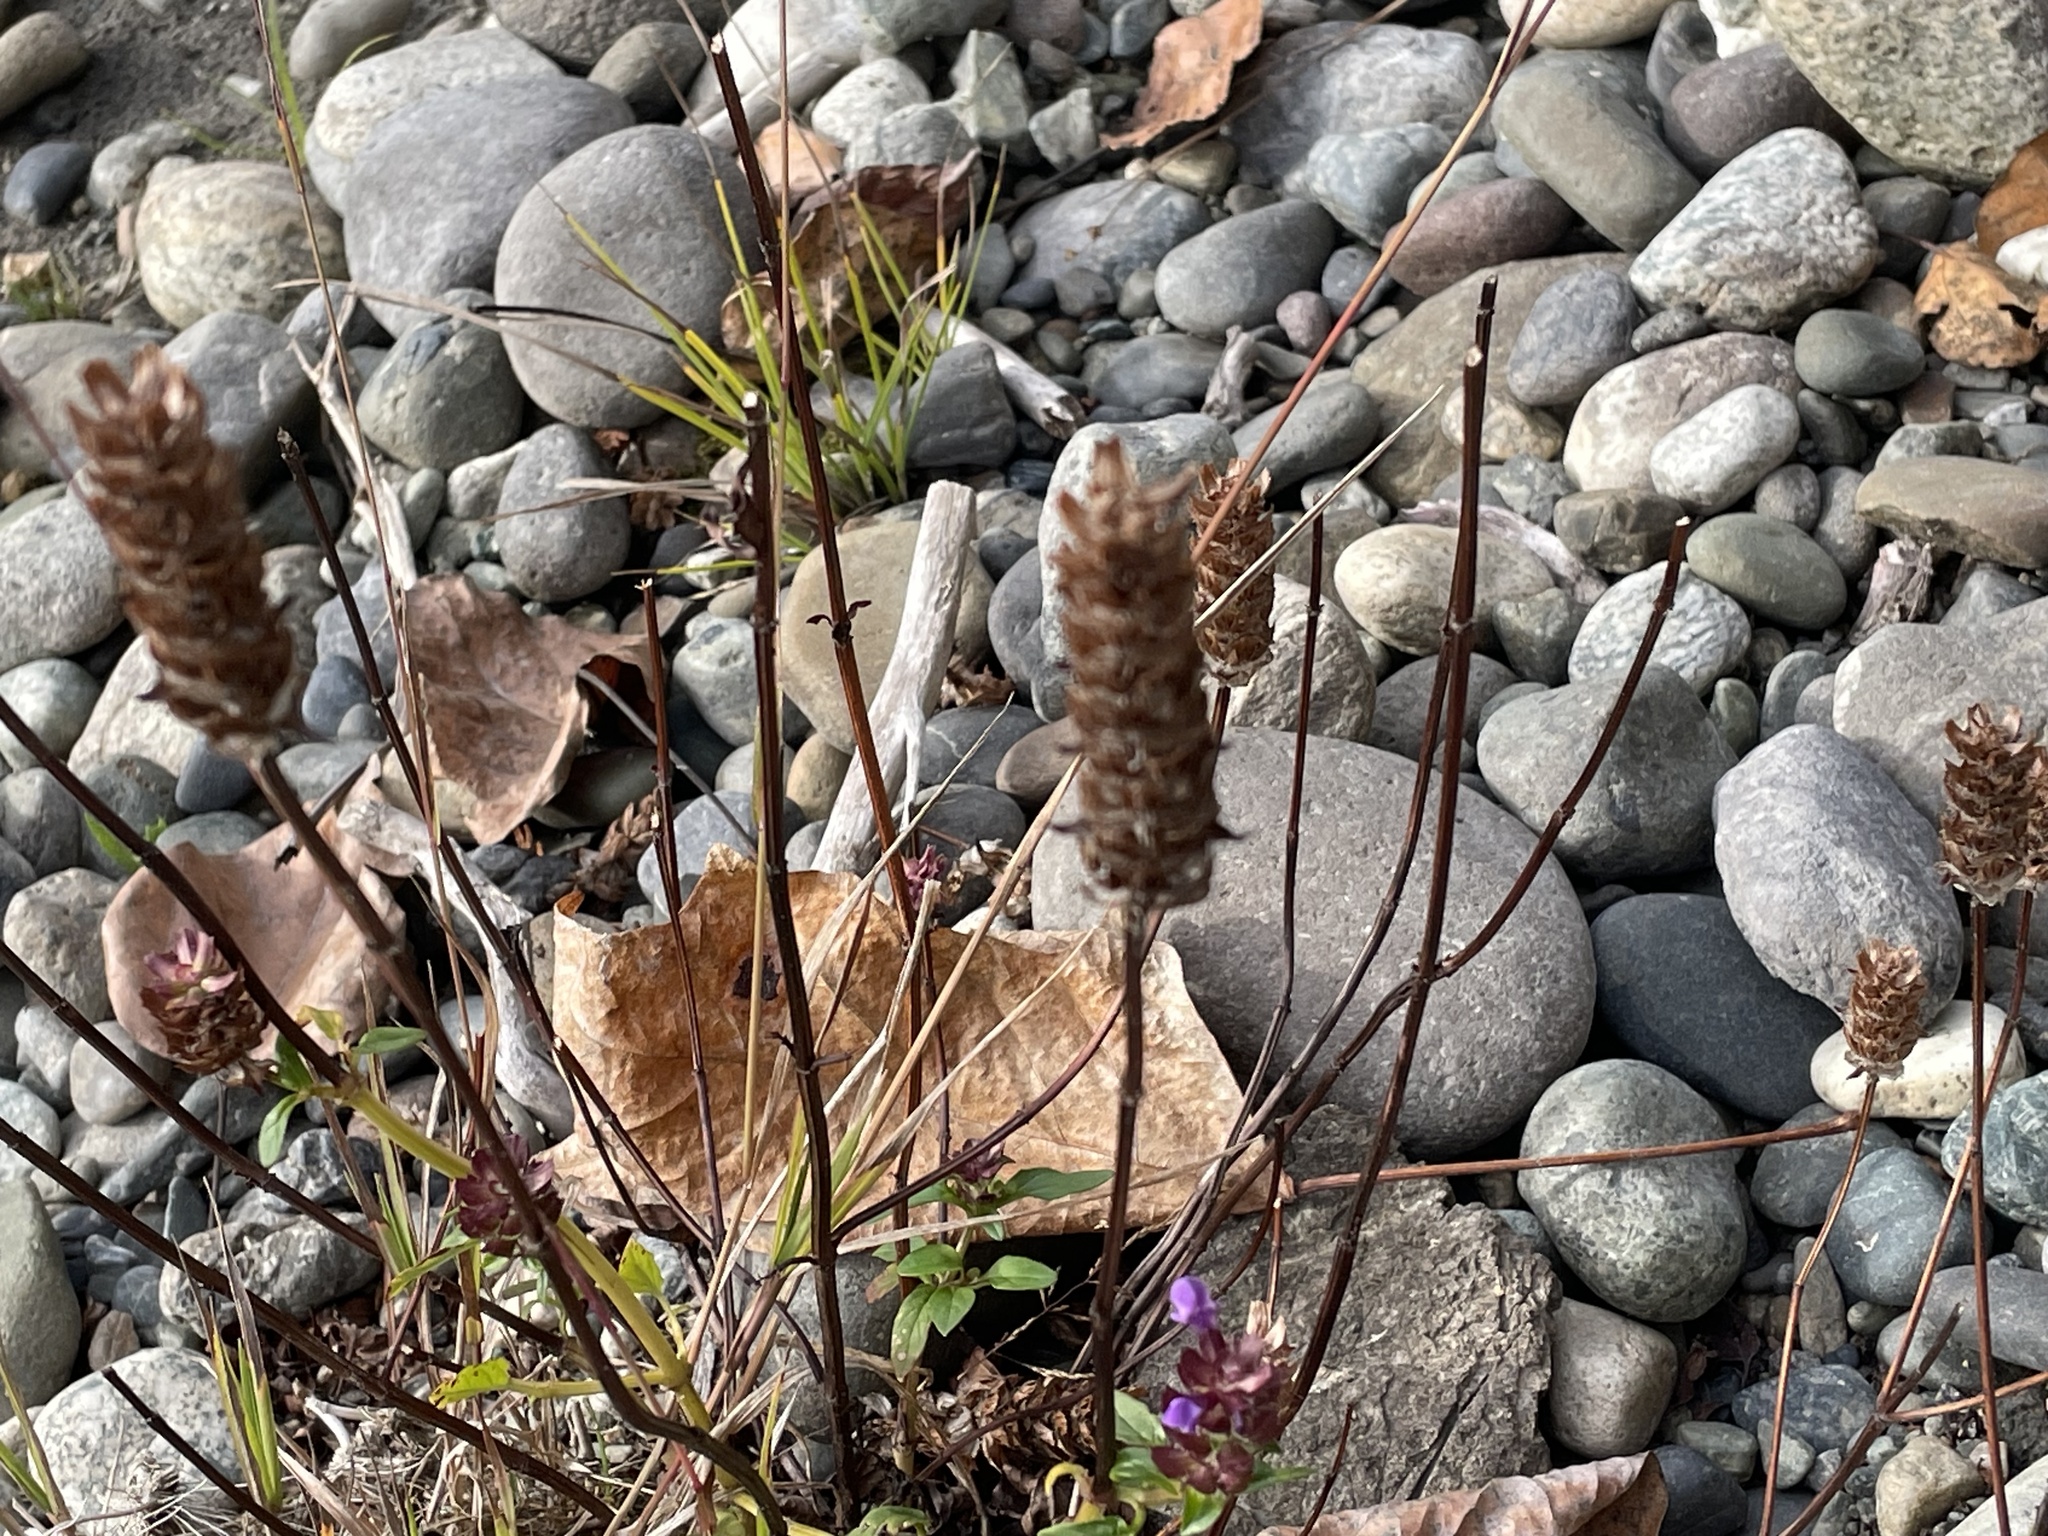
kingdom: Plantae
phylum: Tracheophyta
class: Magnoliopsida
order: Lamiales
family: Lamiaceae
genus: Prunella
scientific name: Prunella vulgaris
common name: Heal-all
